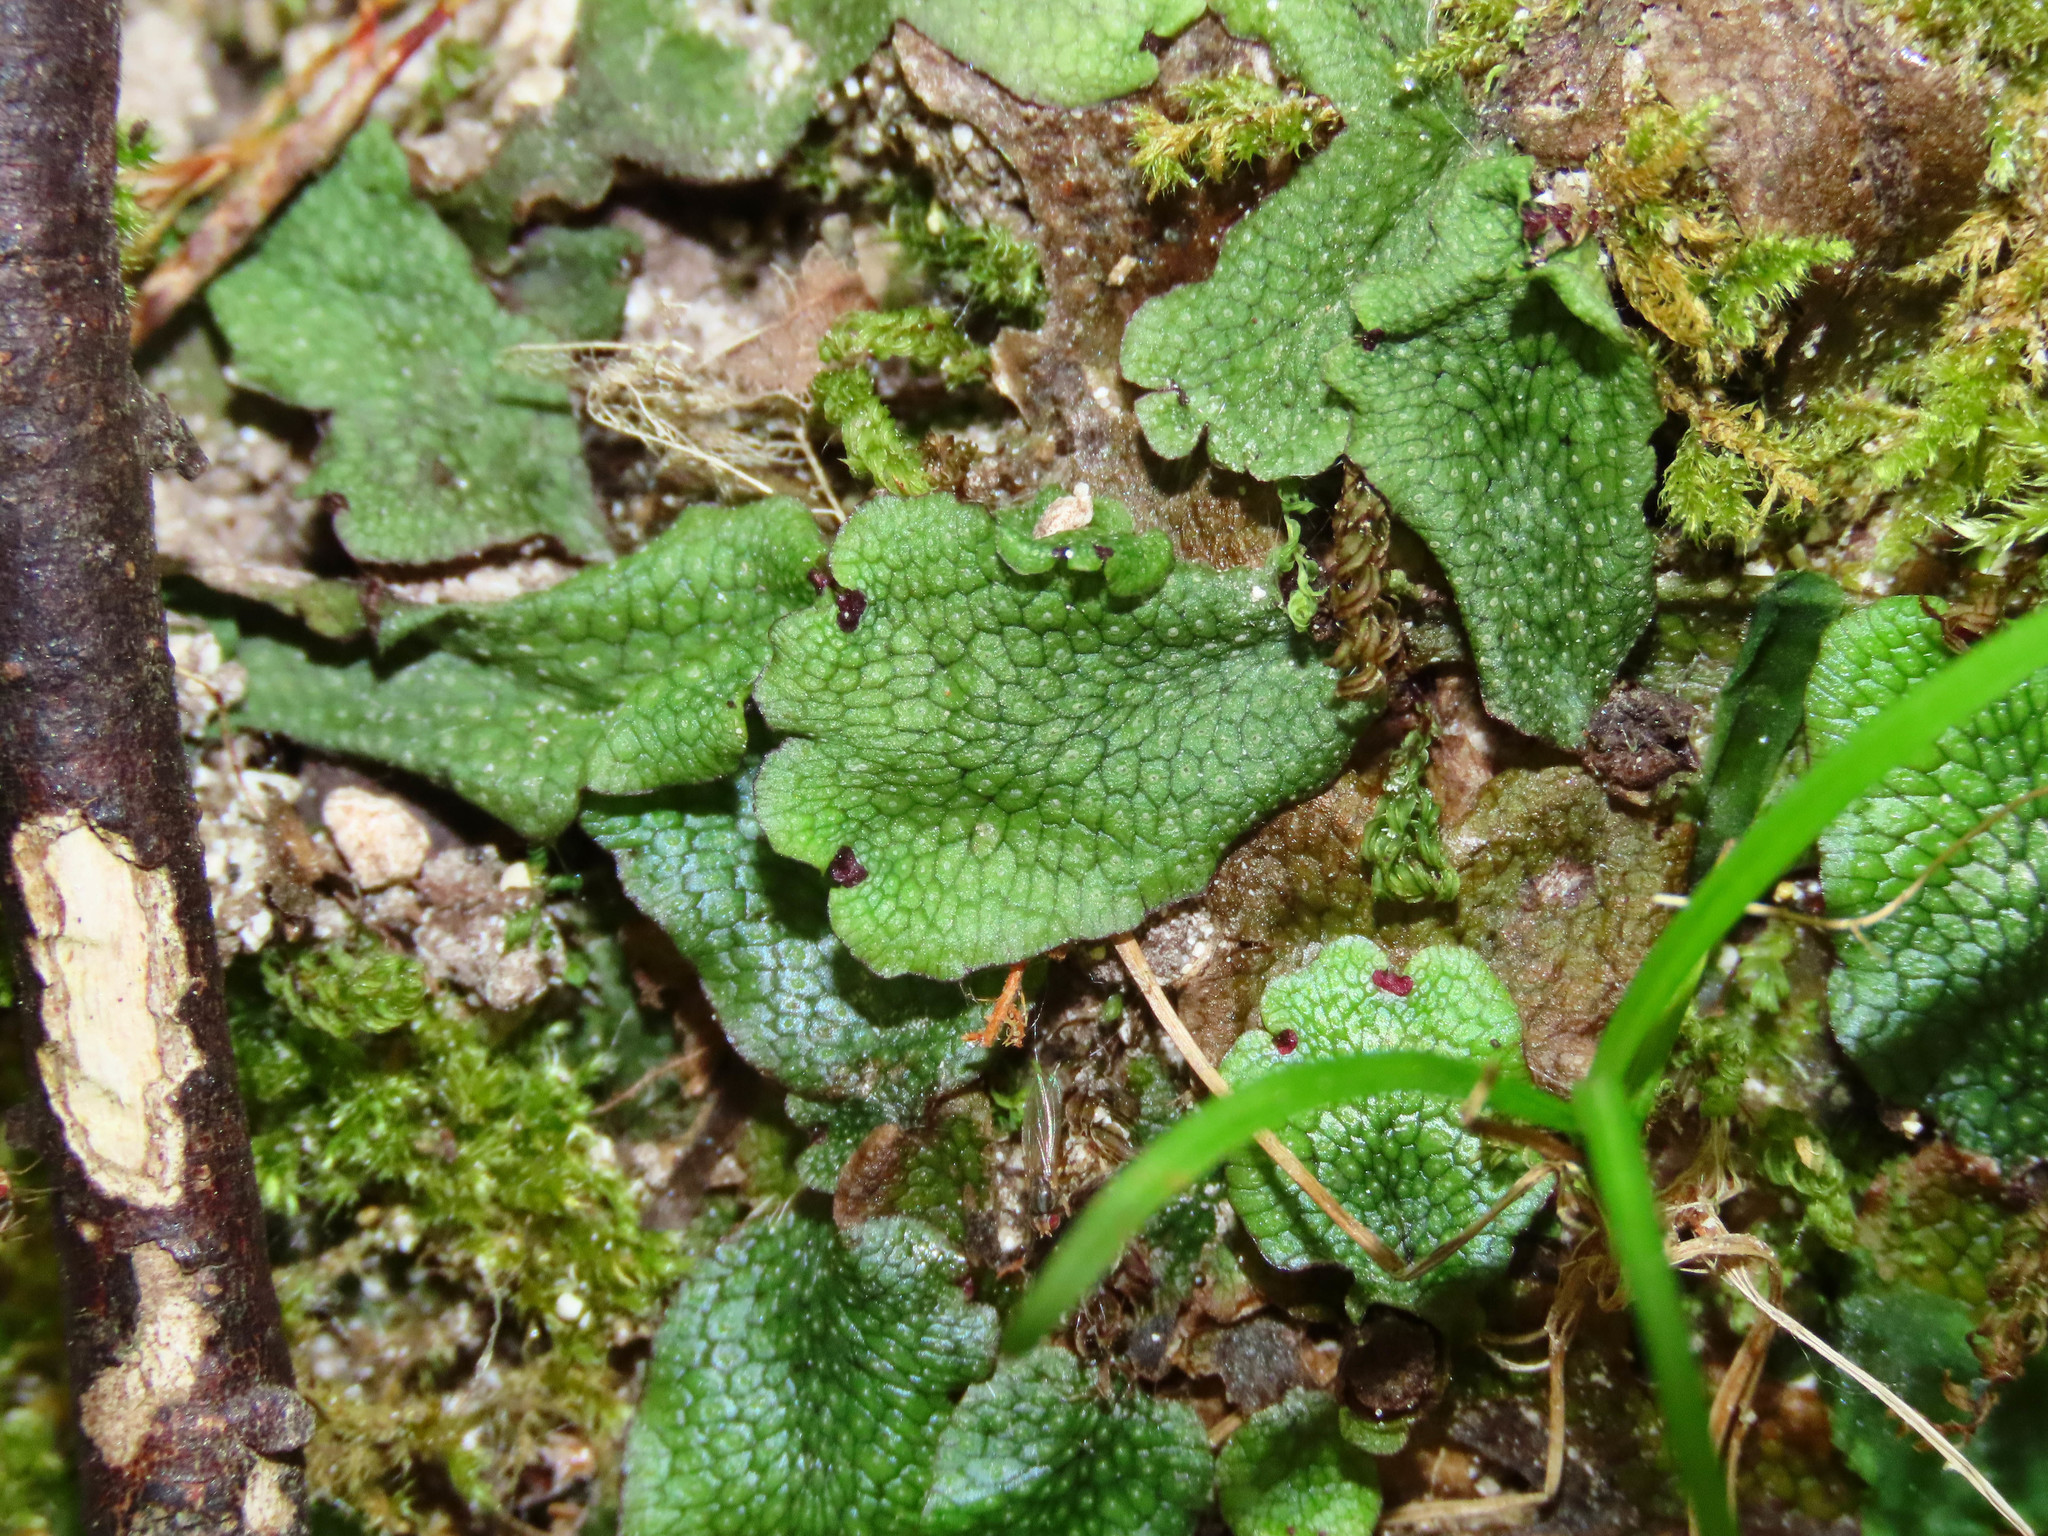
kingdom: Plantae
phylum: Marchantiophyta
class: Marchantiopsida
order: Marchantiales
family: Conocephalaceae
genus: Conocephalum
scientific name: Conocephalum salebrosum
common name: Cat-tongue liverwort
